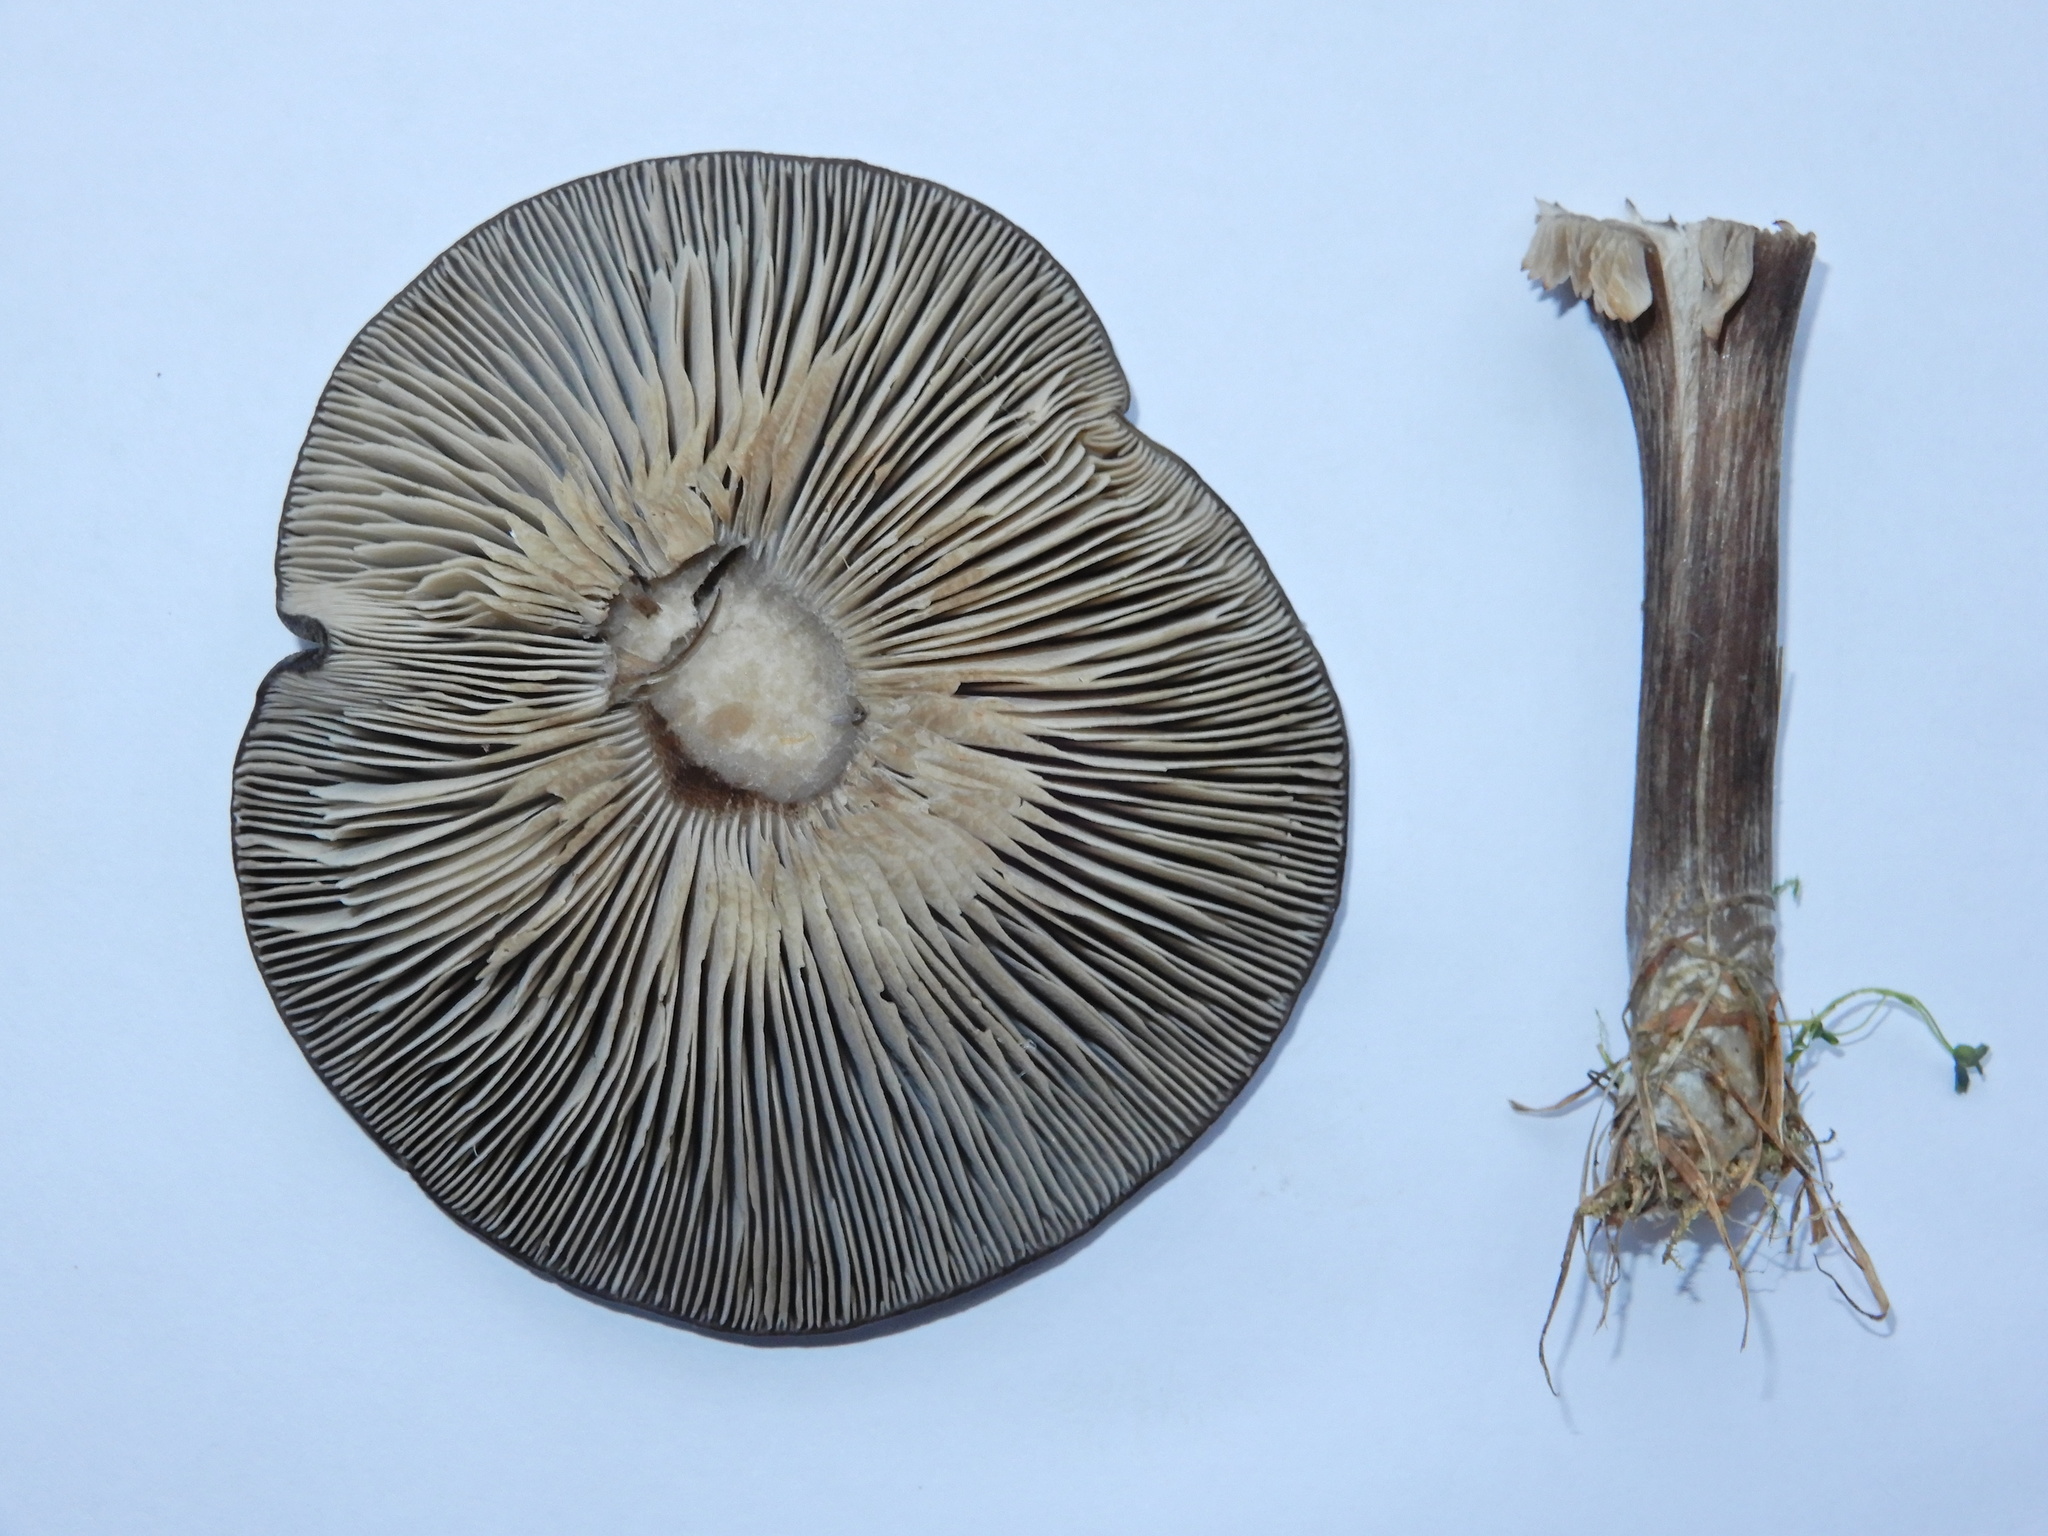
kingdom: Fungi
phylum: Basidiomycota
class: Agaricomycetes
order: Agaricales
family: Tricholomataceae
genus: Melanoleuca
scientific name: Melanoleuca fusca
